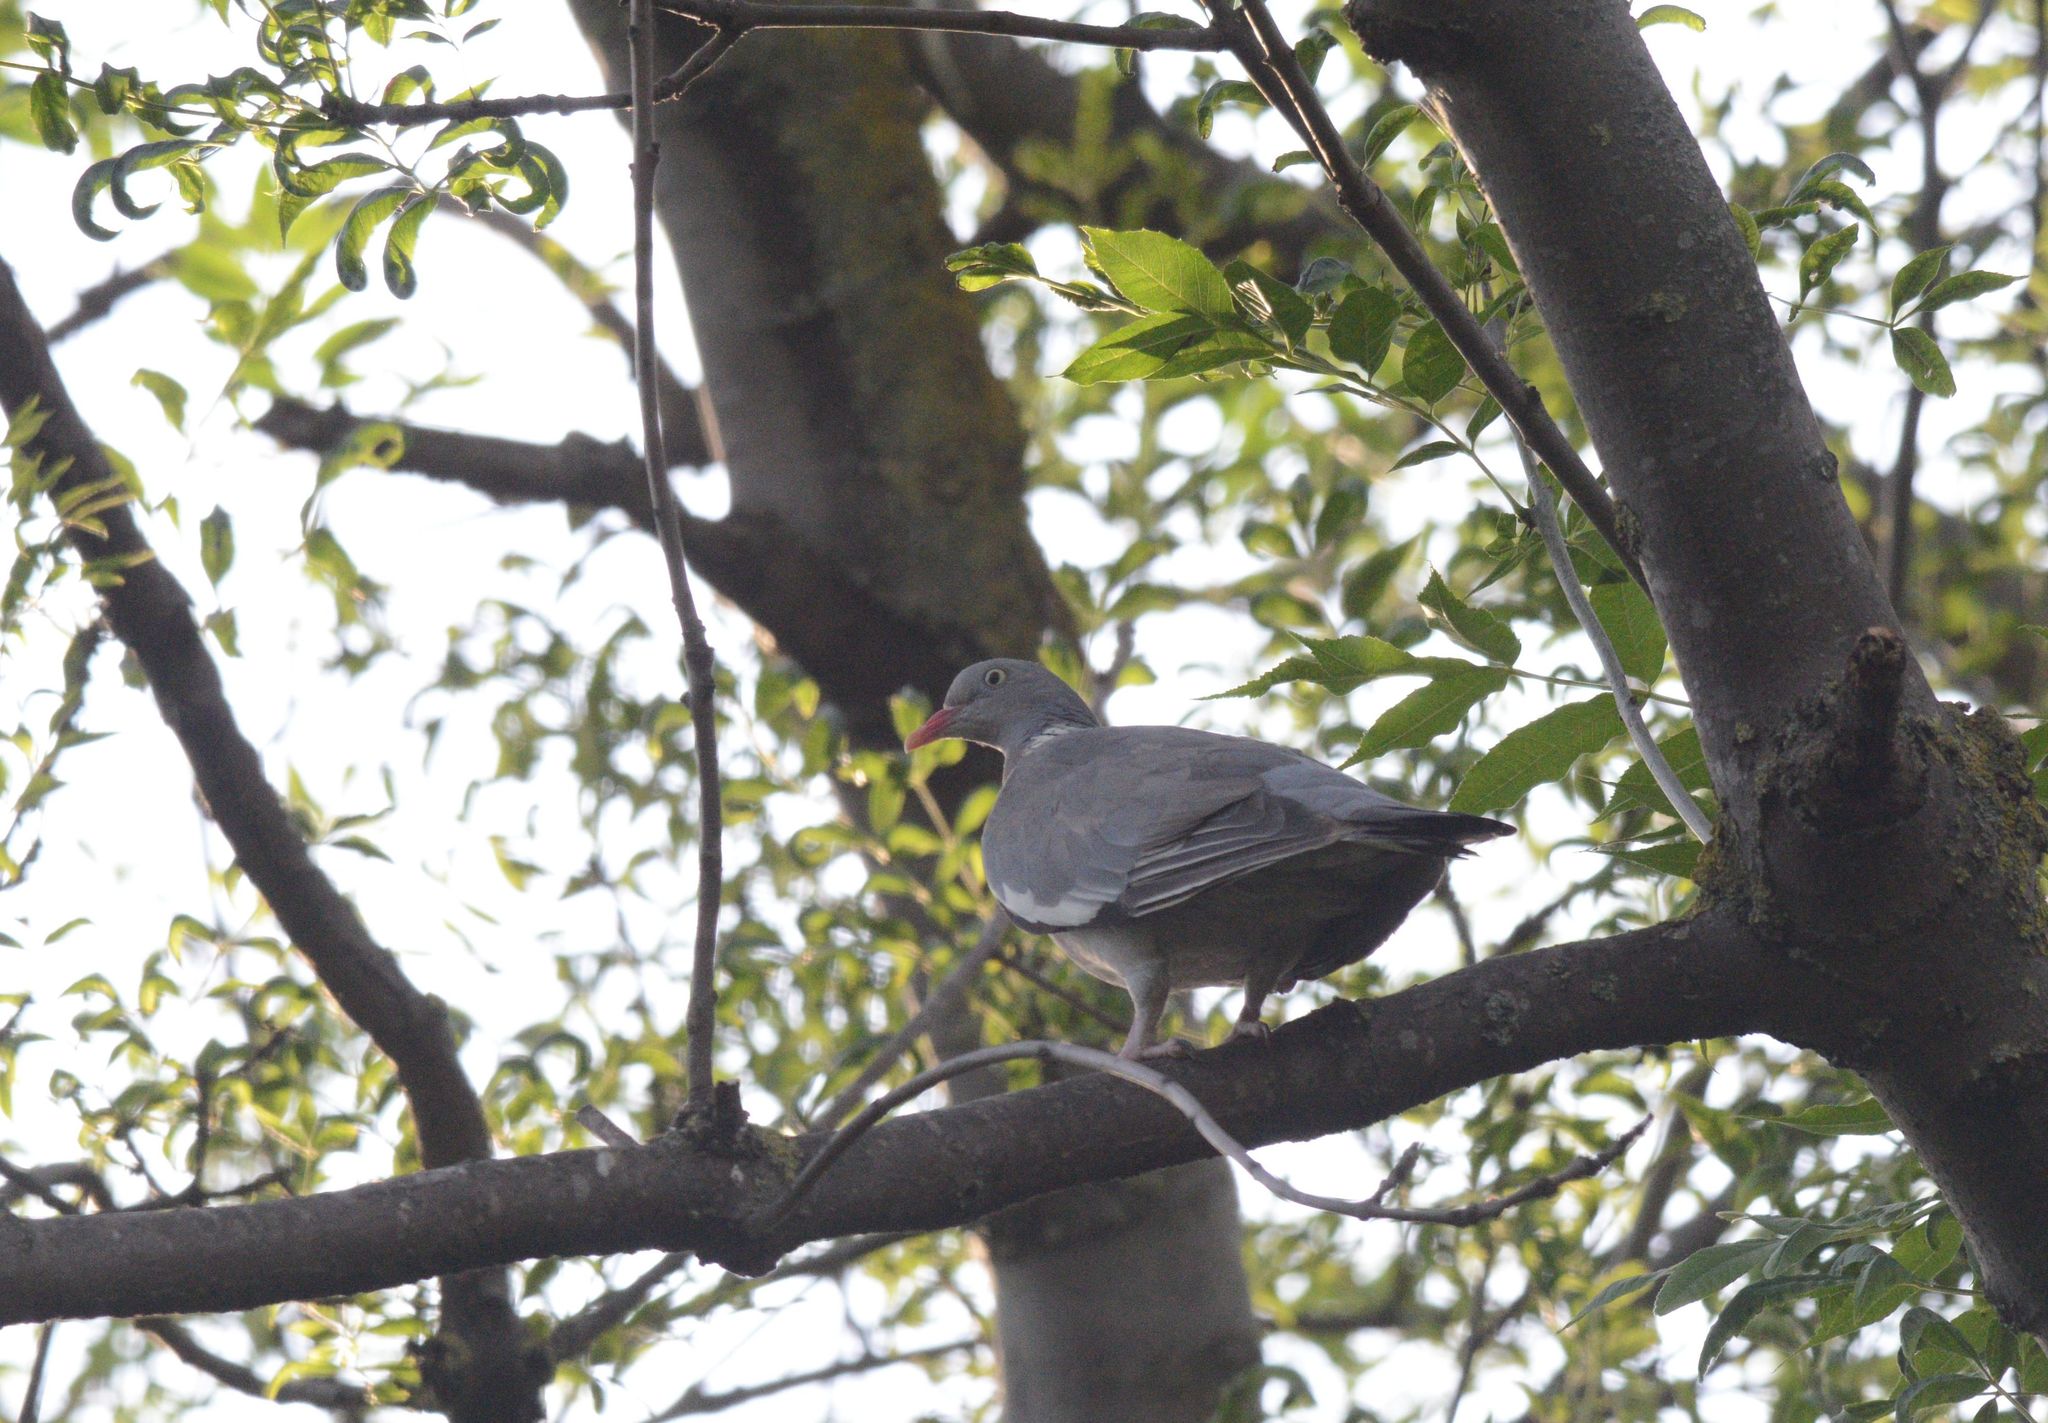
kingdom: Animalia
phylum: Chordata
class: Aves
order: Columbiformes
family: Columbidae
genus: Columba
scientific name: Columba palumbus
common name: Common wood pigeon
